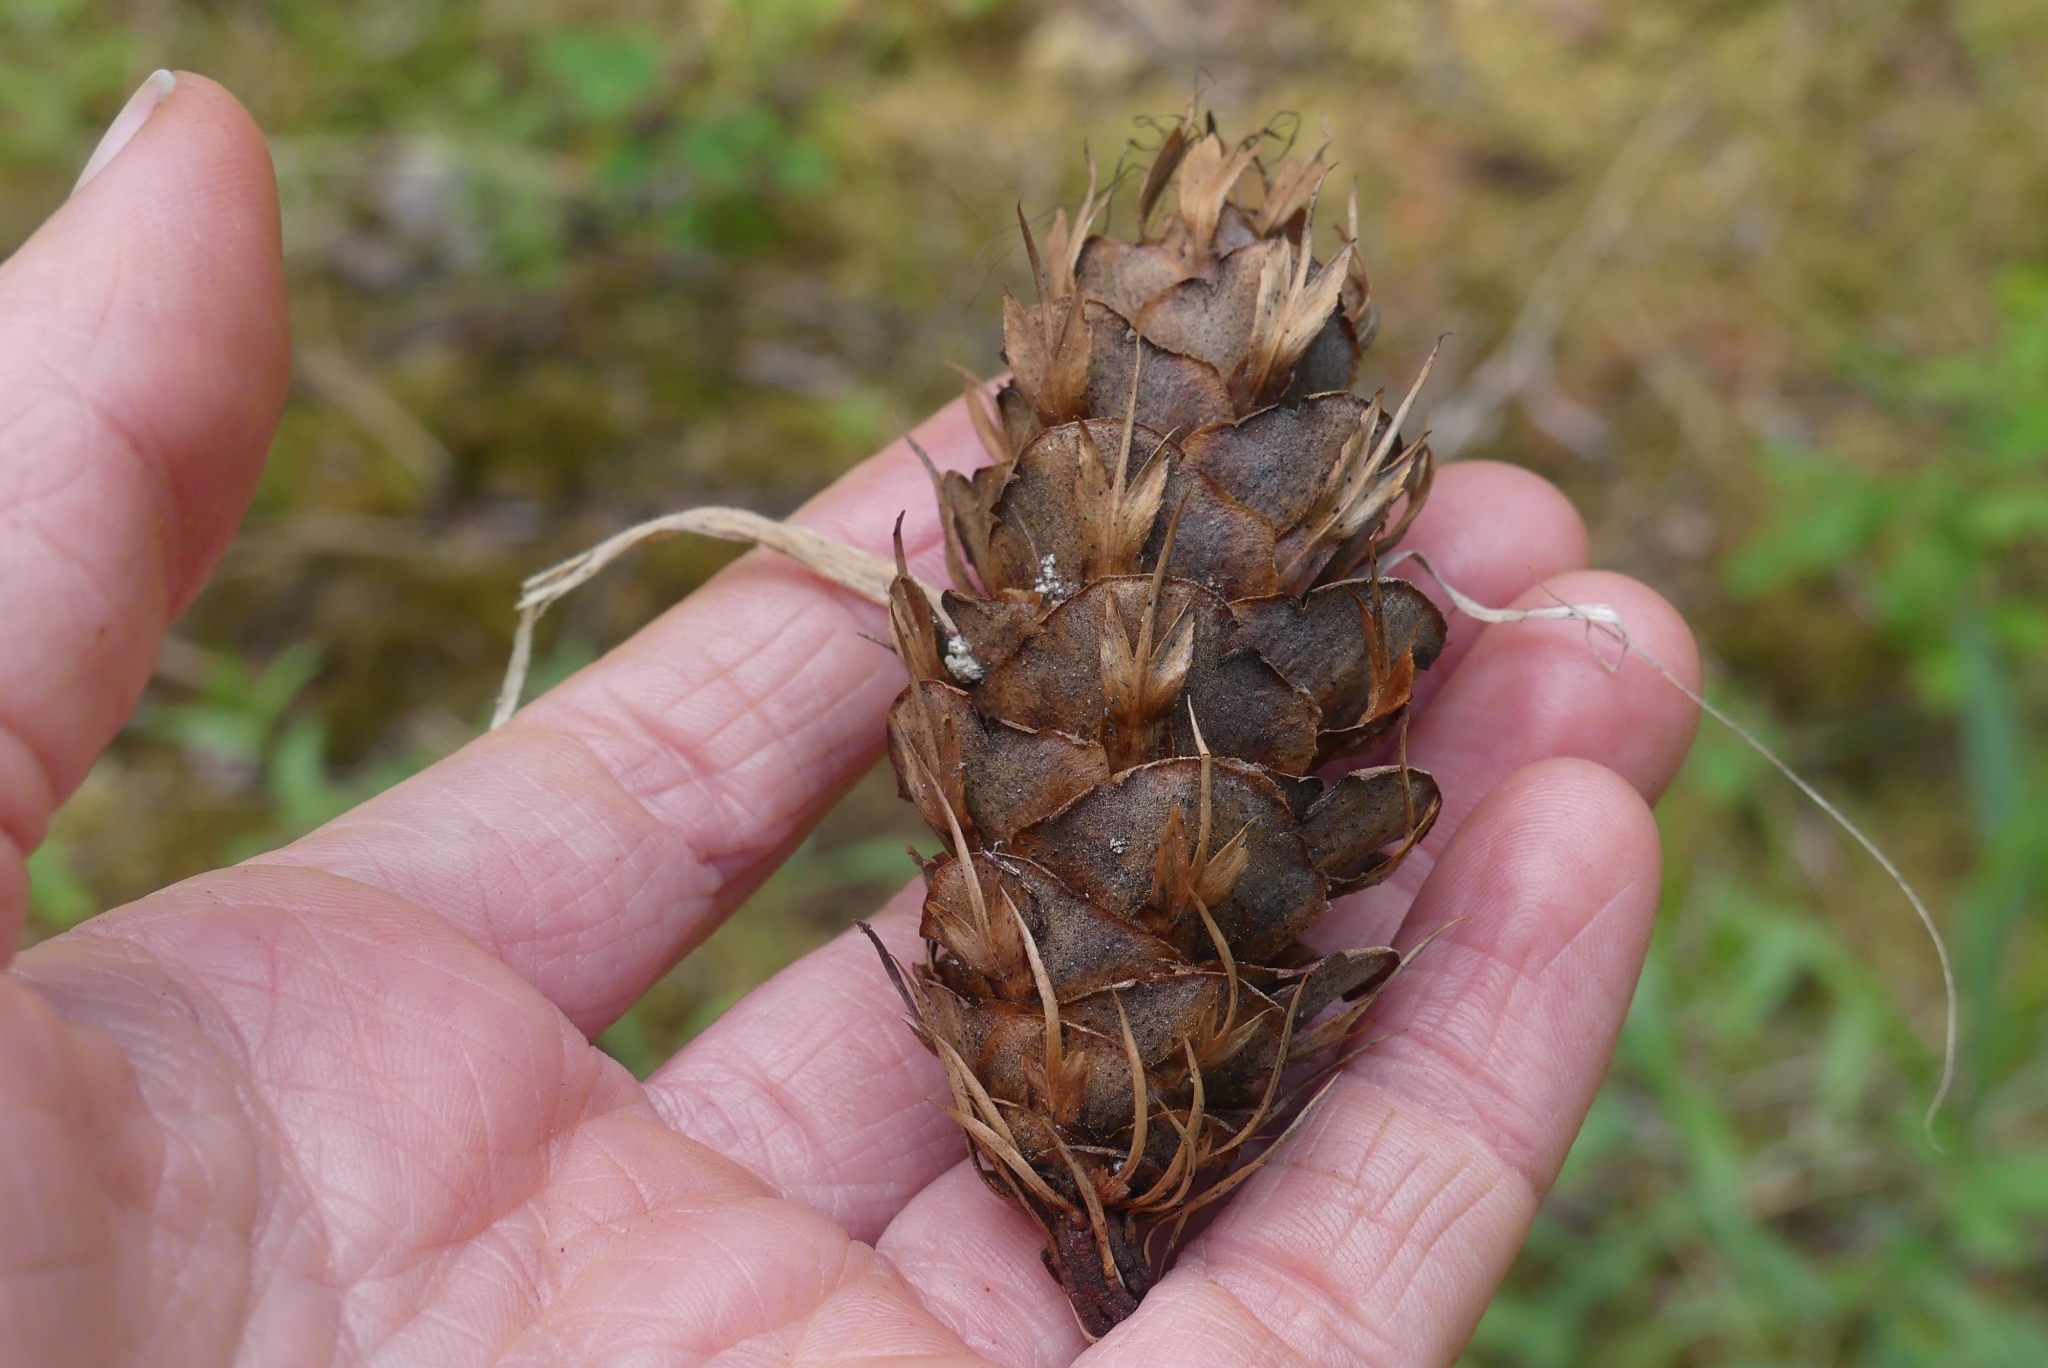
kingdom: Plantae
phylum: Tracheophyta
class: Pinopsida
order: Pinales
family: Pinaceae
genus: Pseudotsuga
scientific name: Pseudotsuga menziesii
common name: Douglas fir
